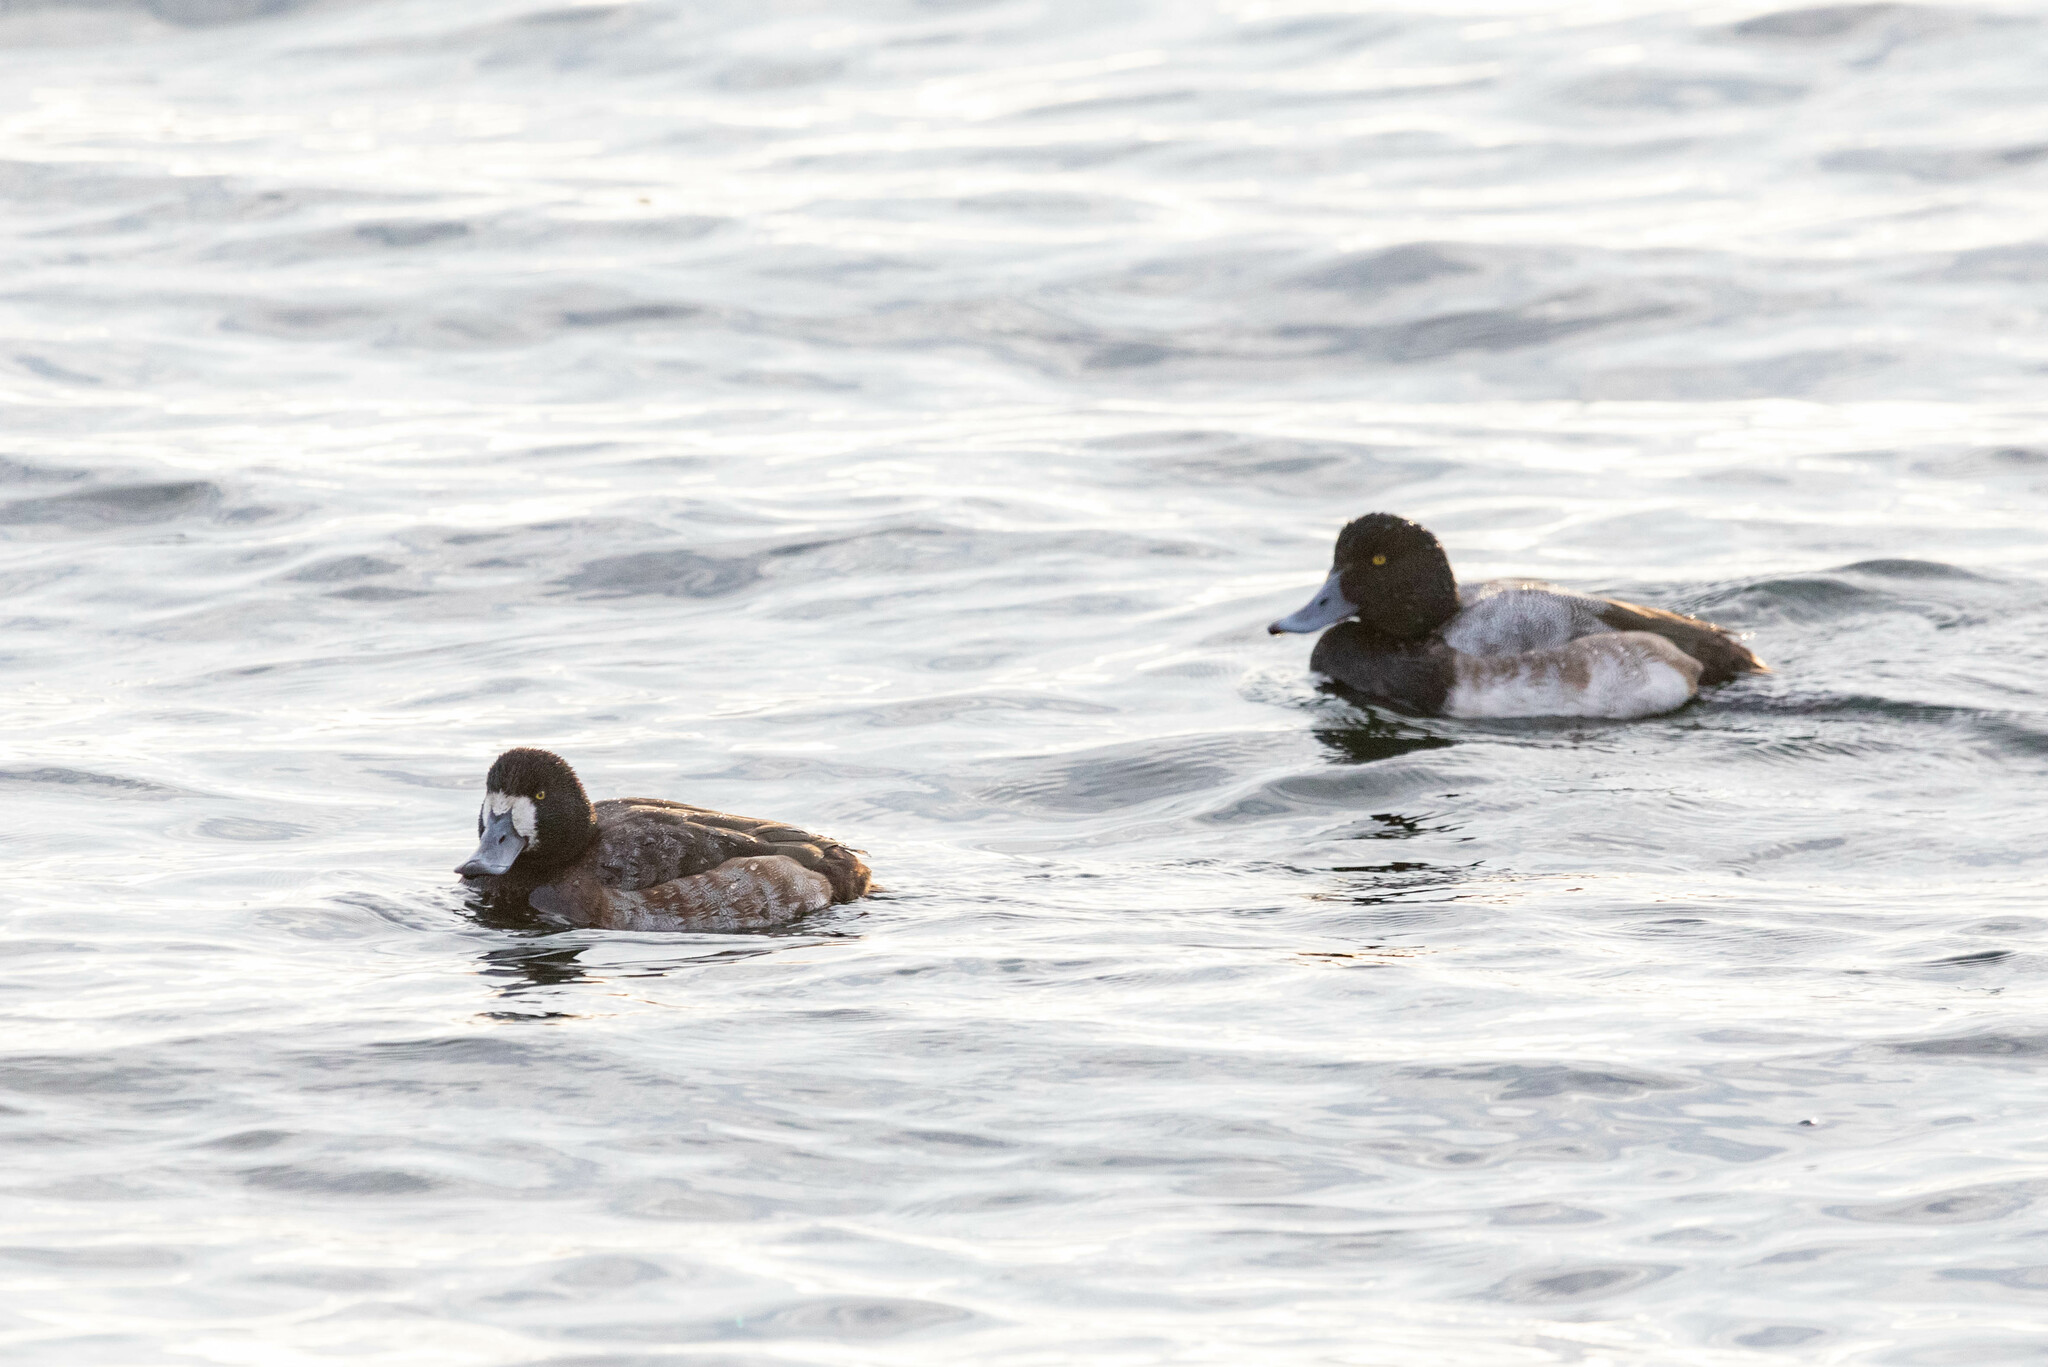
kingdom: Animalia
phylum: Chordata
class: Aves
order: Anseriformes
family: Anatidae
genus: Aythya
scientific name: Aythya marila
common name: Greater scaup
